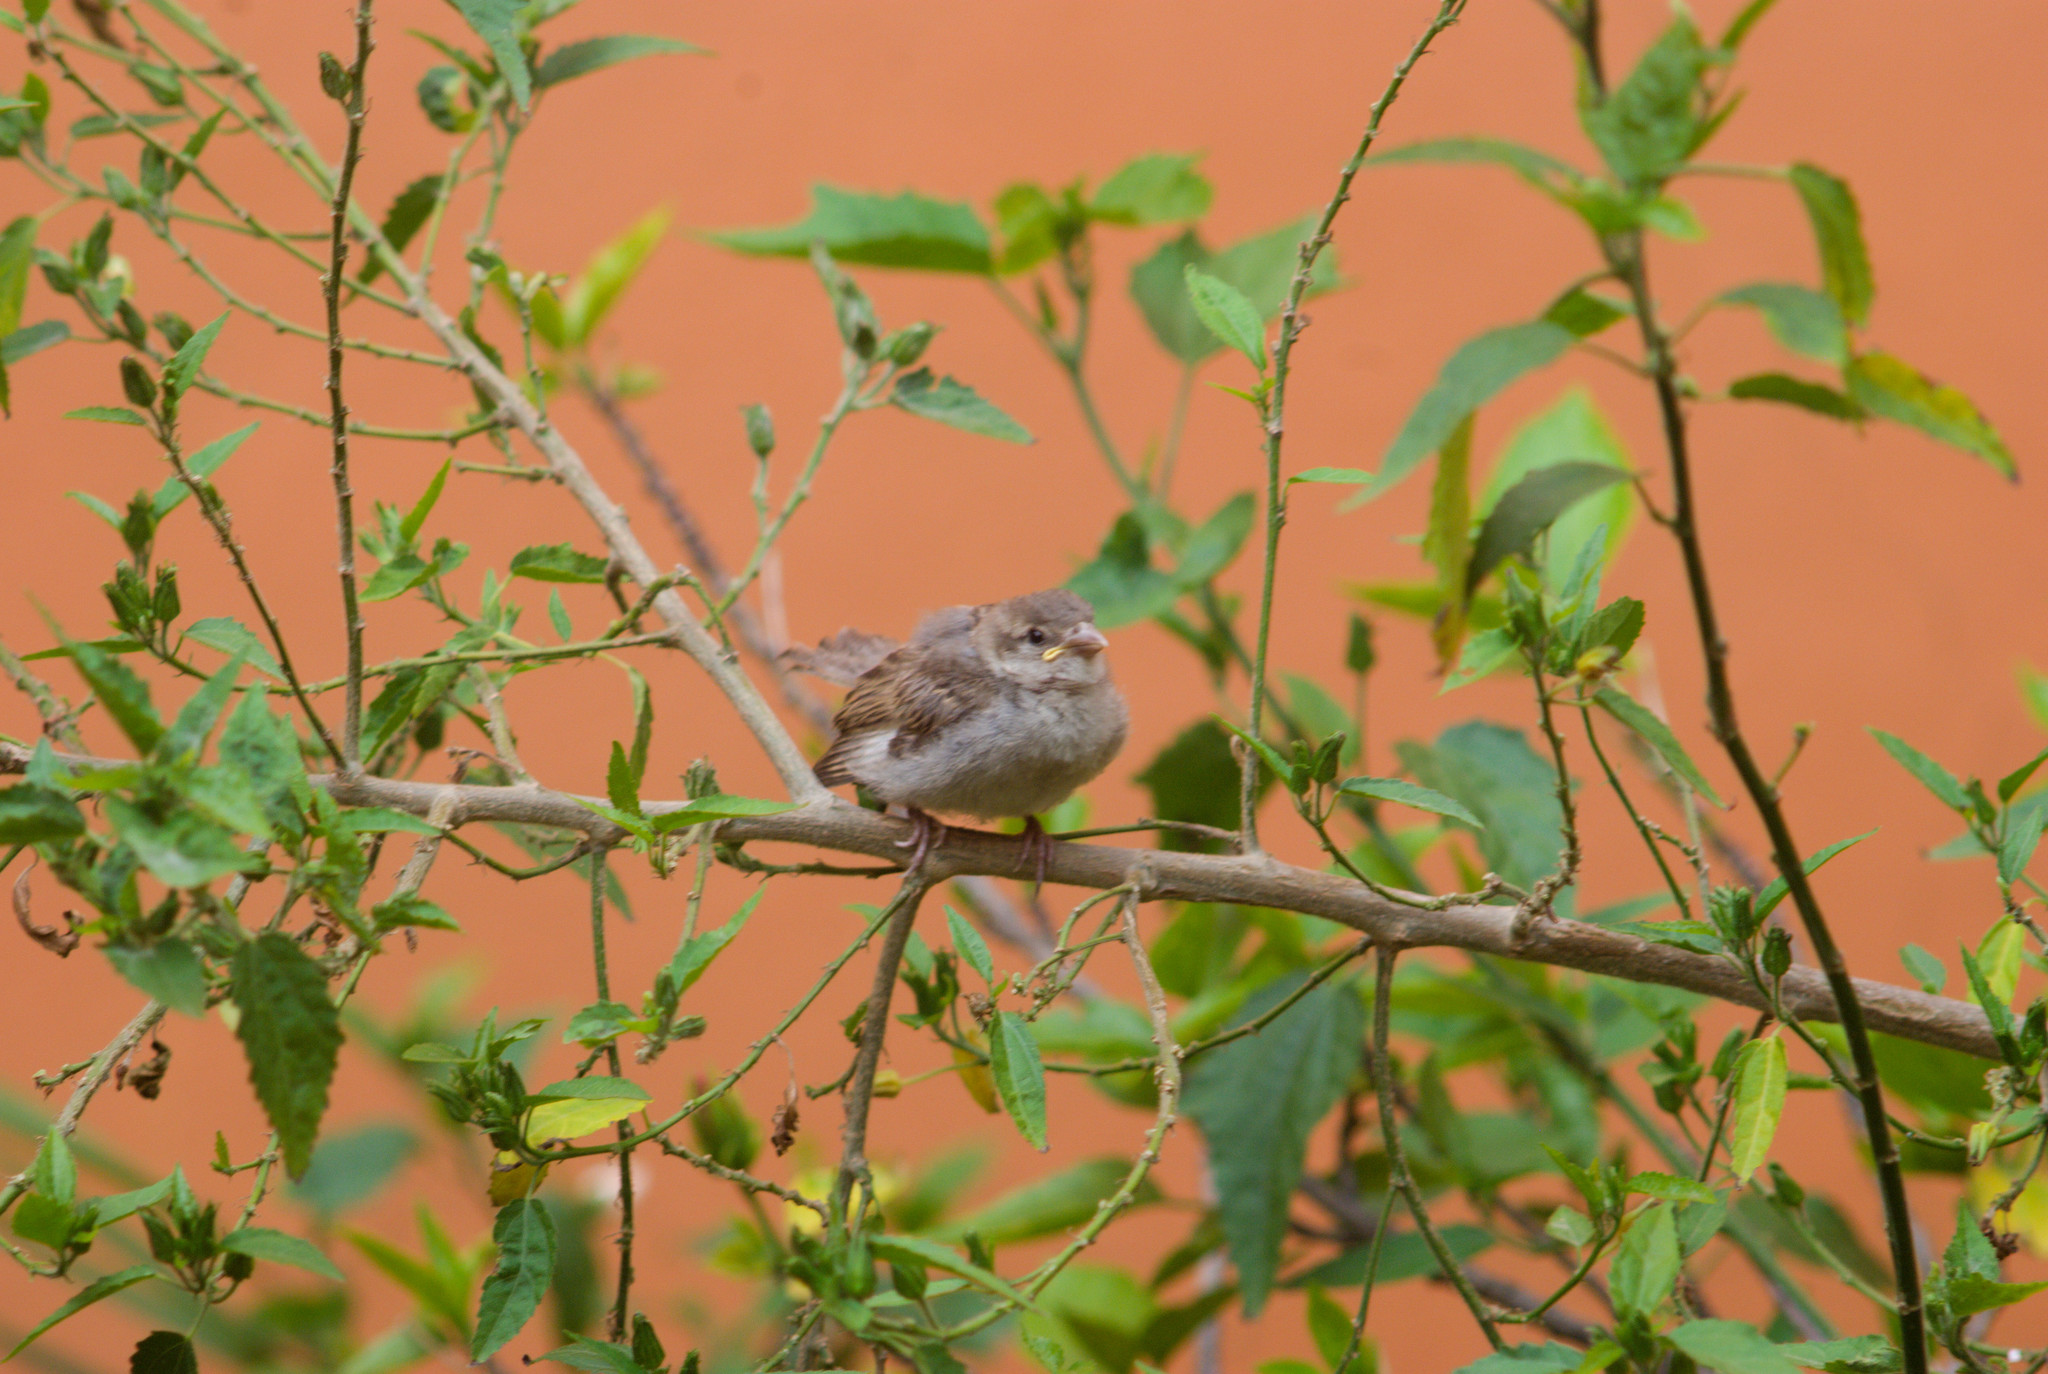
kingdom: Animalia
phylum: Chordata
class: Aves
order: Passeriformes
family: Passeridae
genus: Passer
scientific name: Passer domesticus
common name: House sparrow
